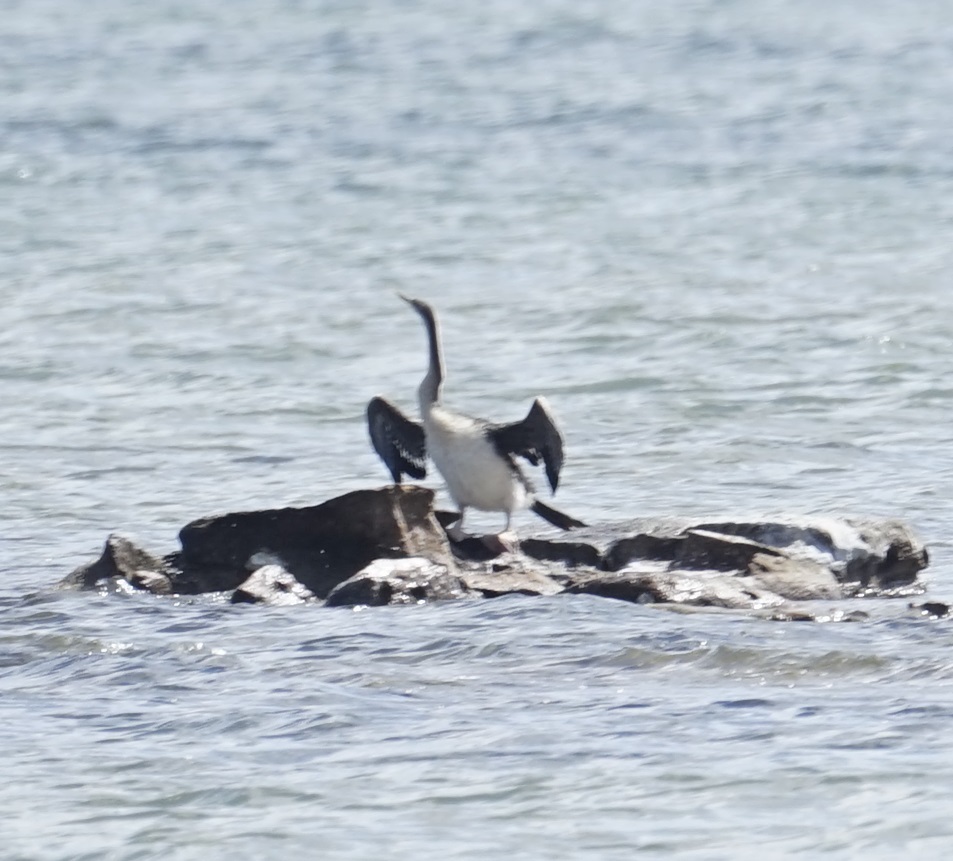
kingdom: Animalia
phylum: Chordata
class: Aves
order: Suliformes
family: Anhingidae
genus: Anhinga
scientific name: Anhinga novaehollandiae
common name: Australasian darter
